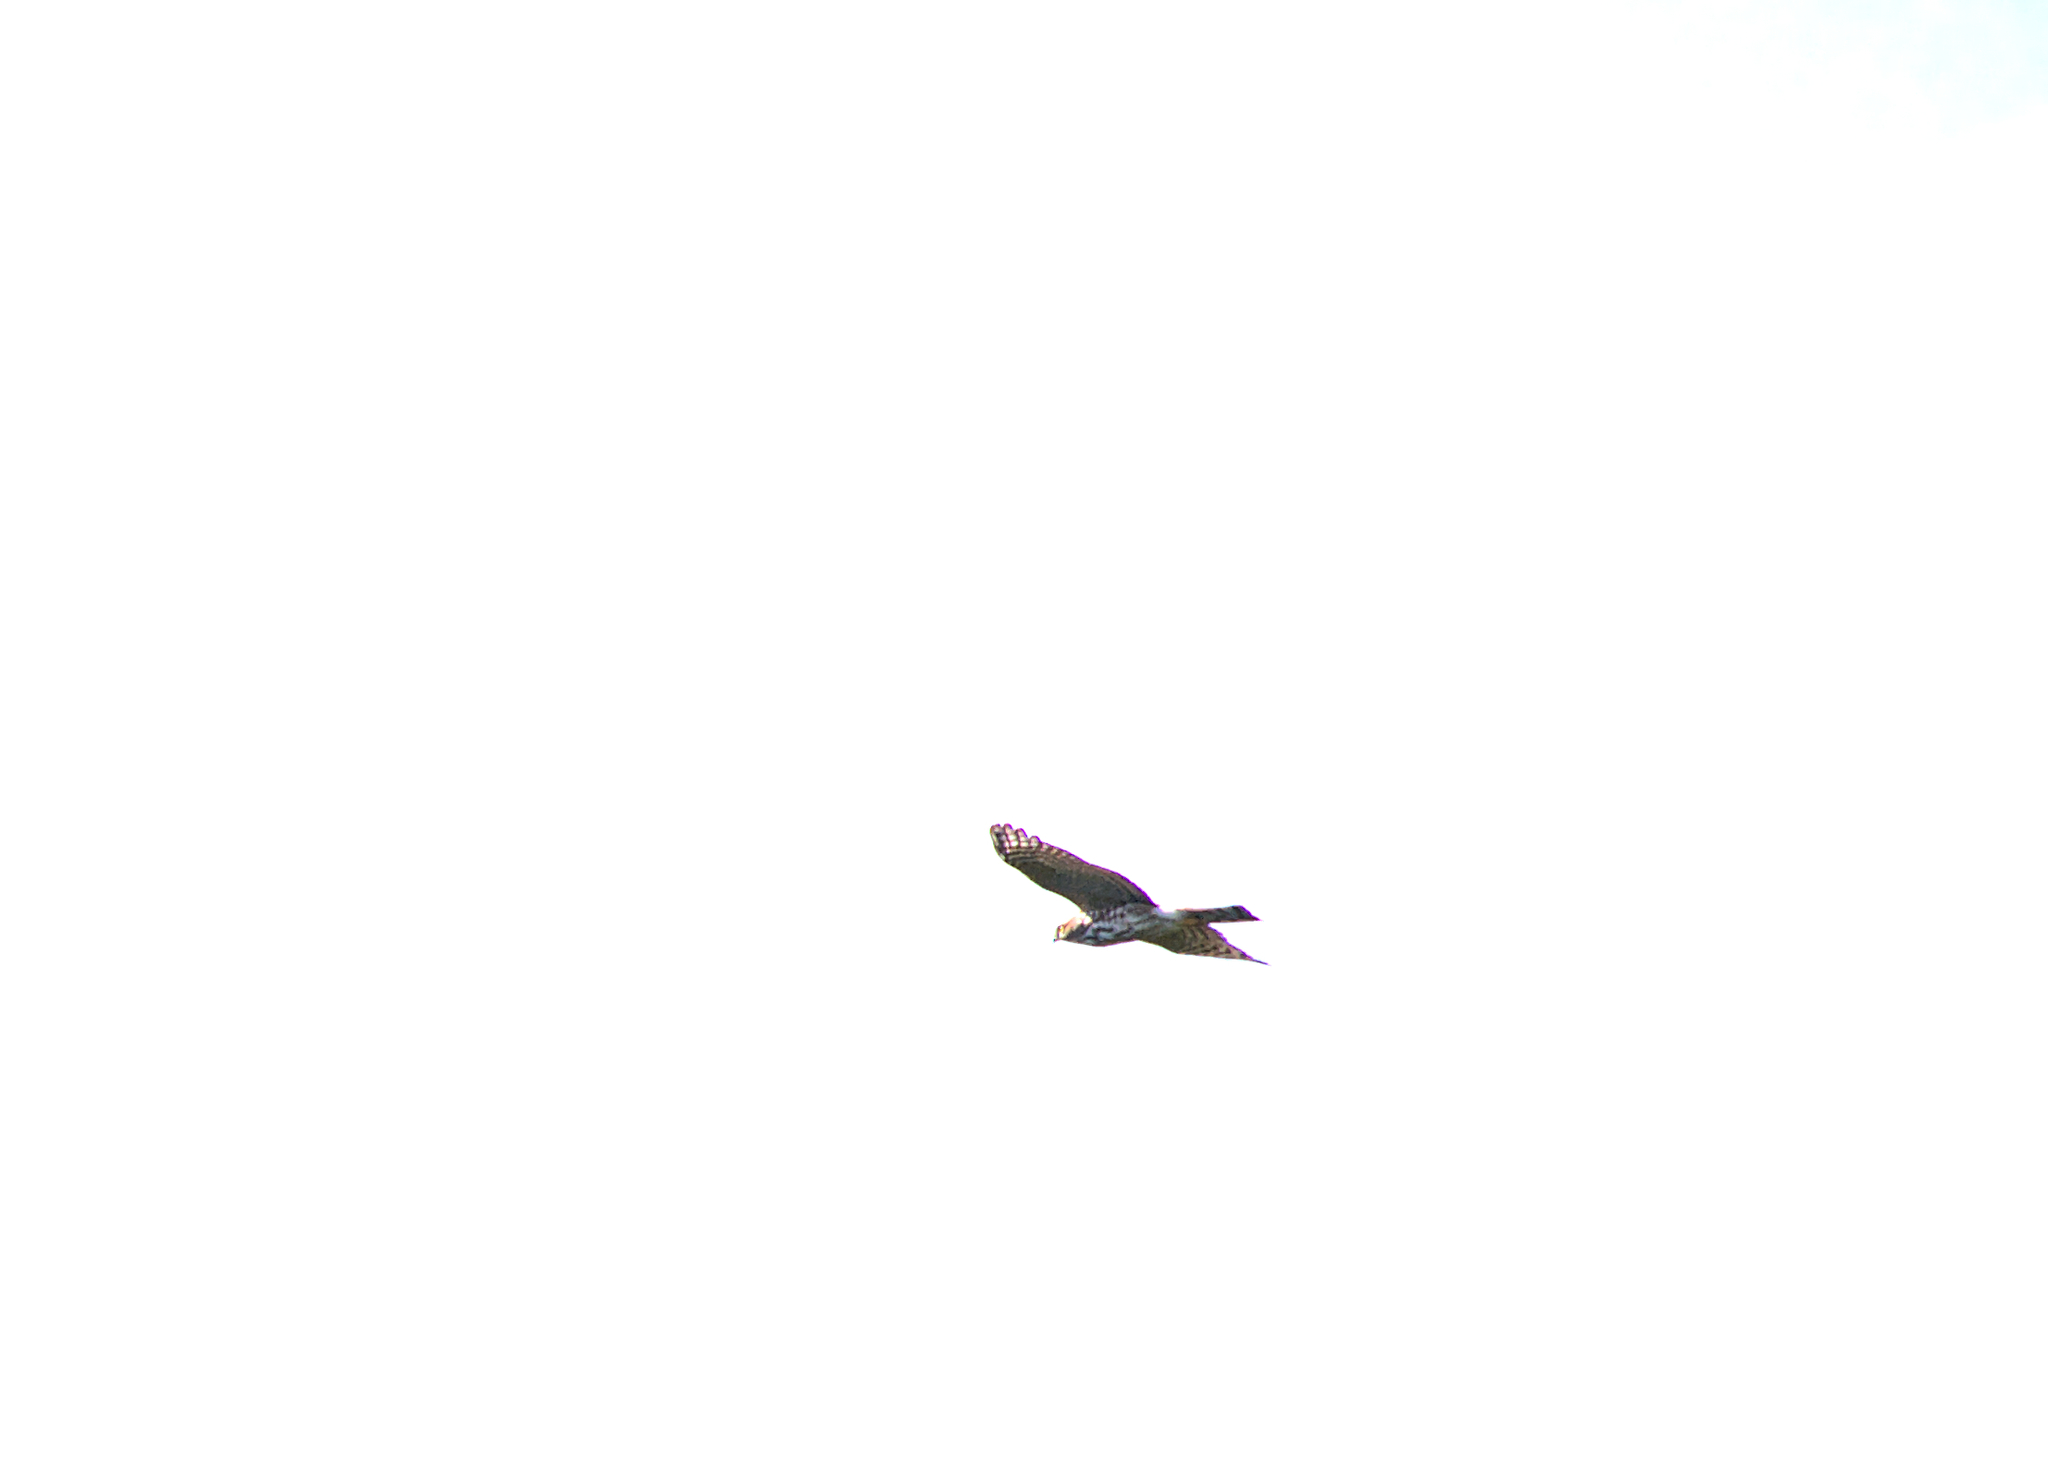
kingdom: Animalia
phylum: Chordata
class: Aves
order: Accipitriformes
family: Accipitridae
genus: Accipiter
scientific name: Accipiter striatus
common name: Sharp-shinned hawk
